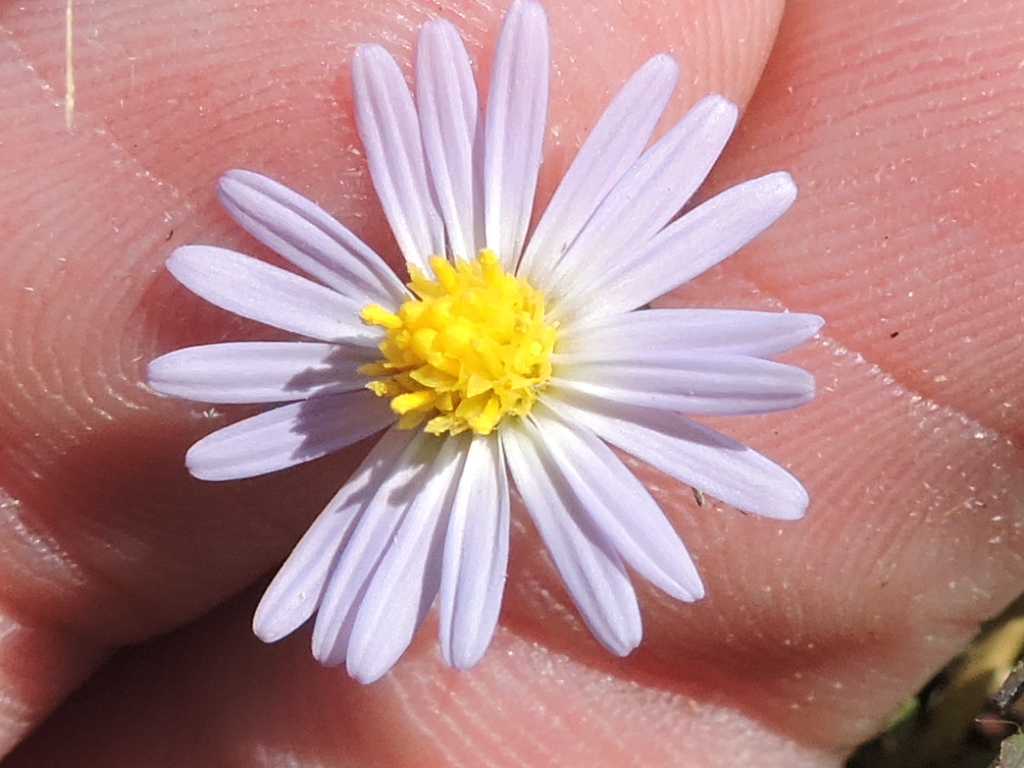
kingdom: Plantae
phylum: Tracheophyta
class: Magnoliopsida
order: Asterales
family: Asteraceae
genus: Symphyotrichum
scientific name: Symphyotrichum divaricatum
